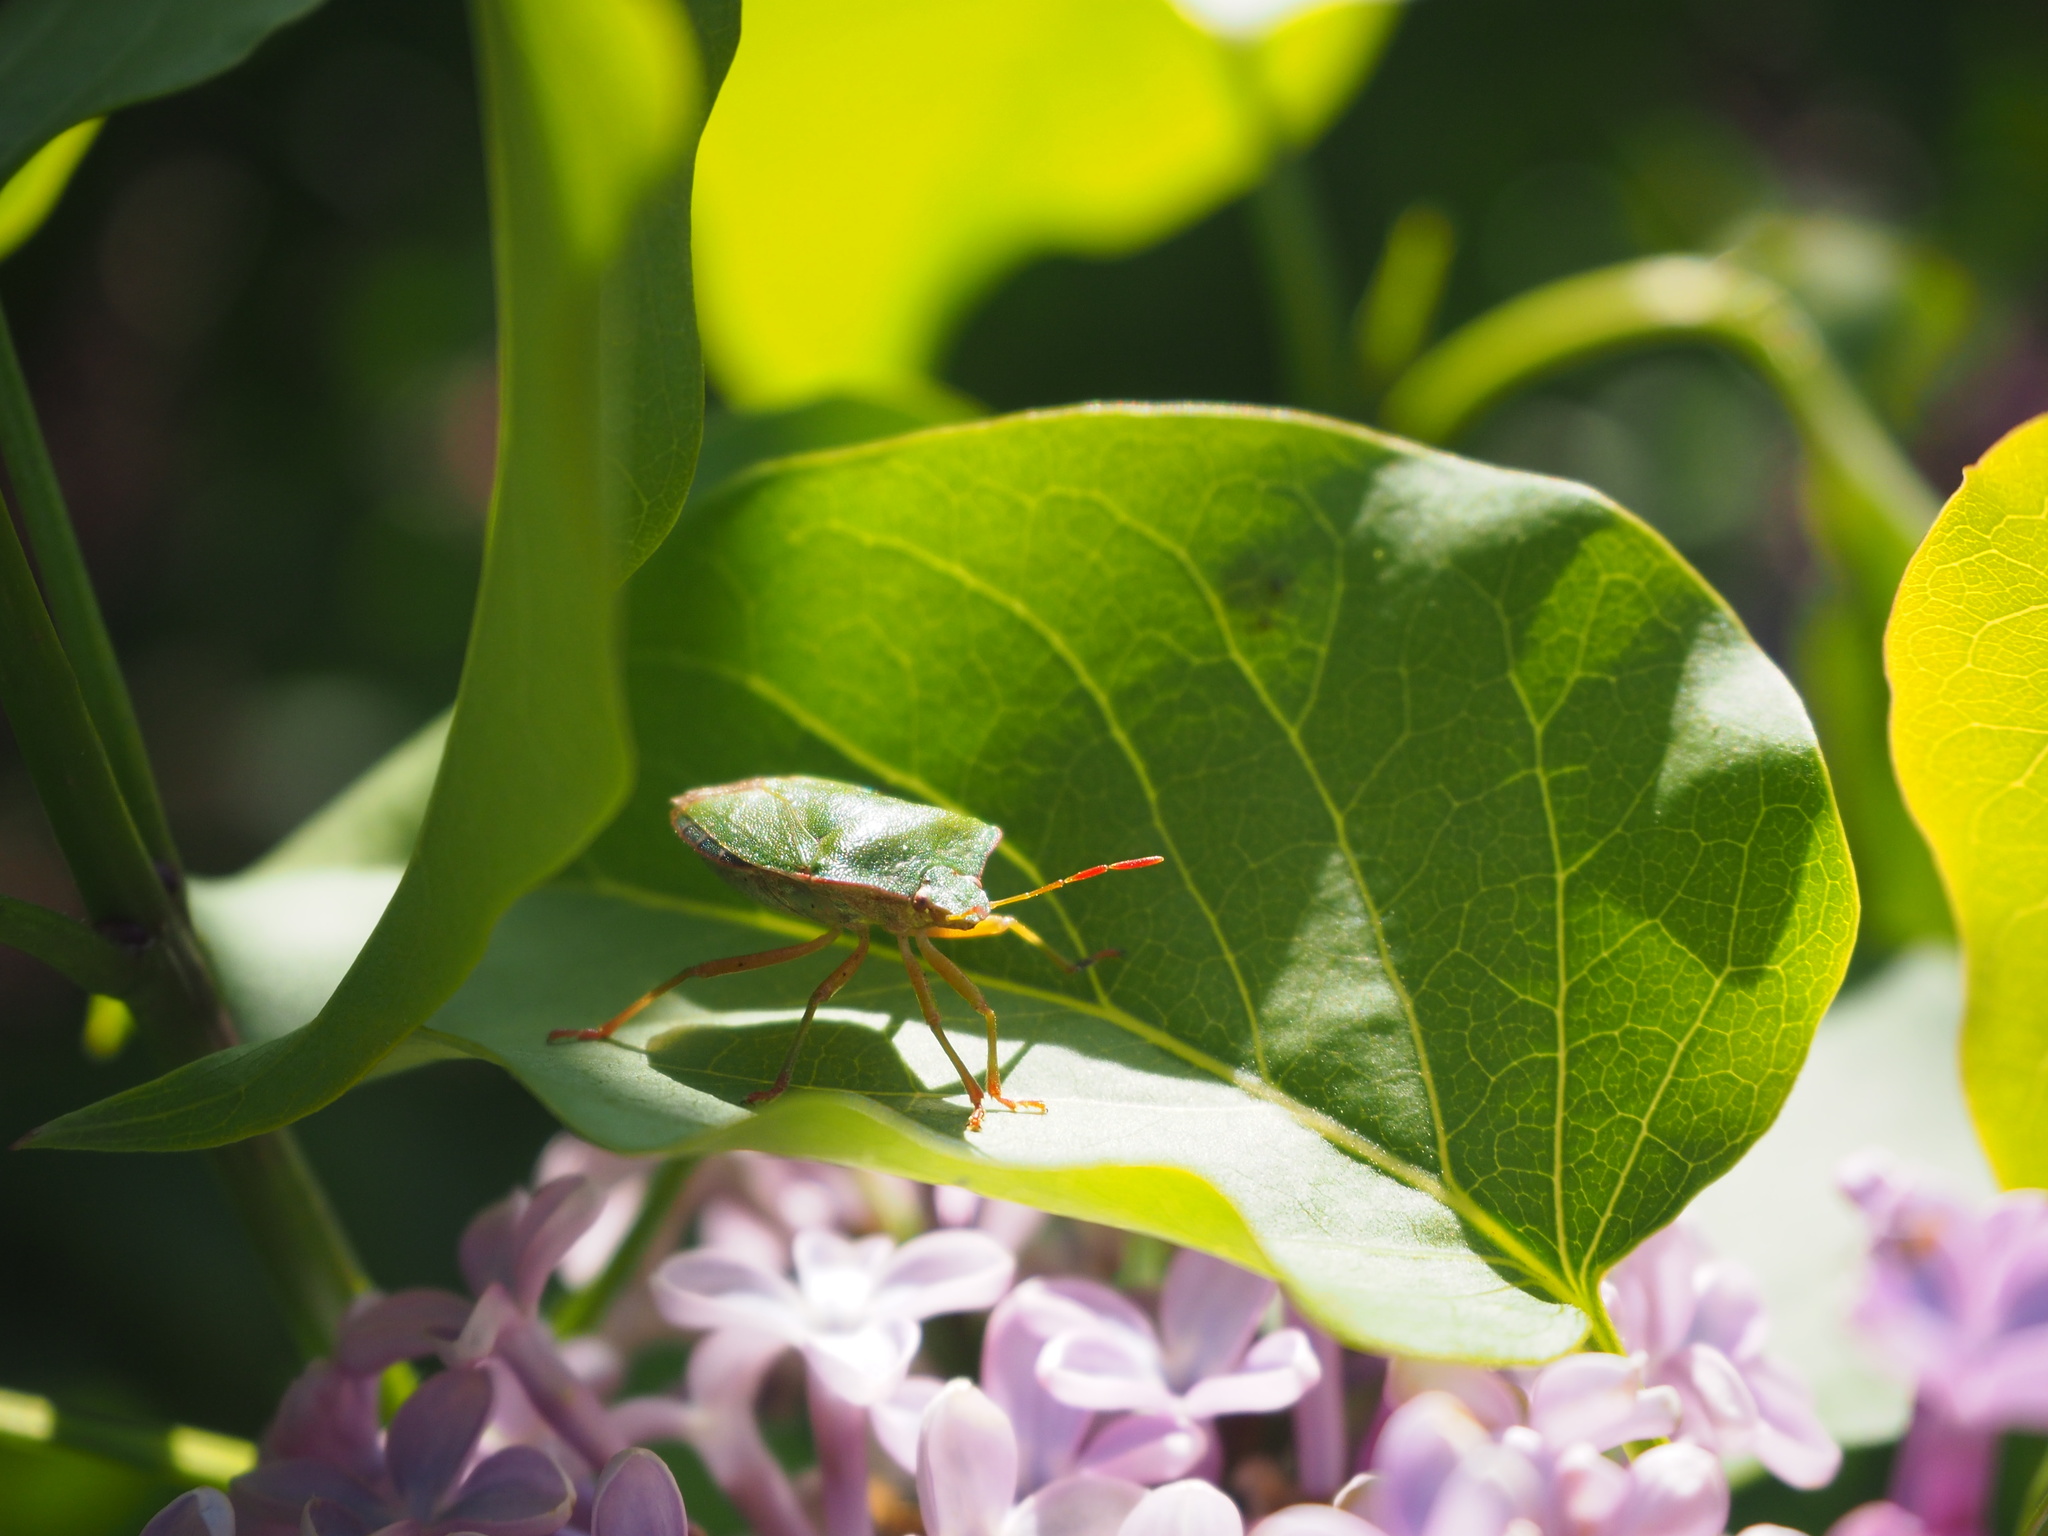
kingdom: Animalia
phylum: Arthropoda
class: Insecta
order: Hemiptera
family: Pentatomidae
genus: Palomena
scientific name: Palomena prasina
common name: Green shieldbug
